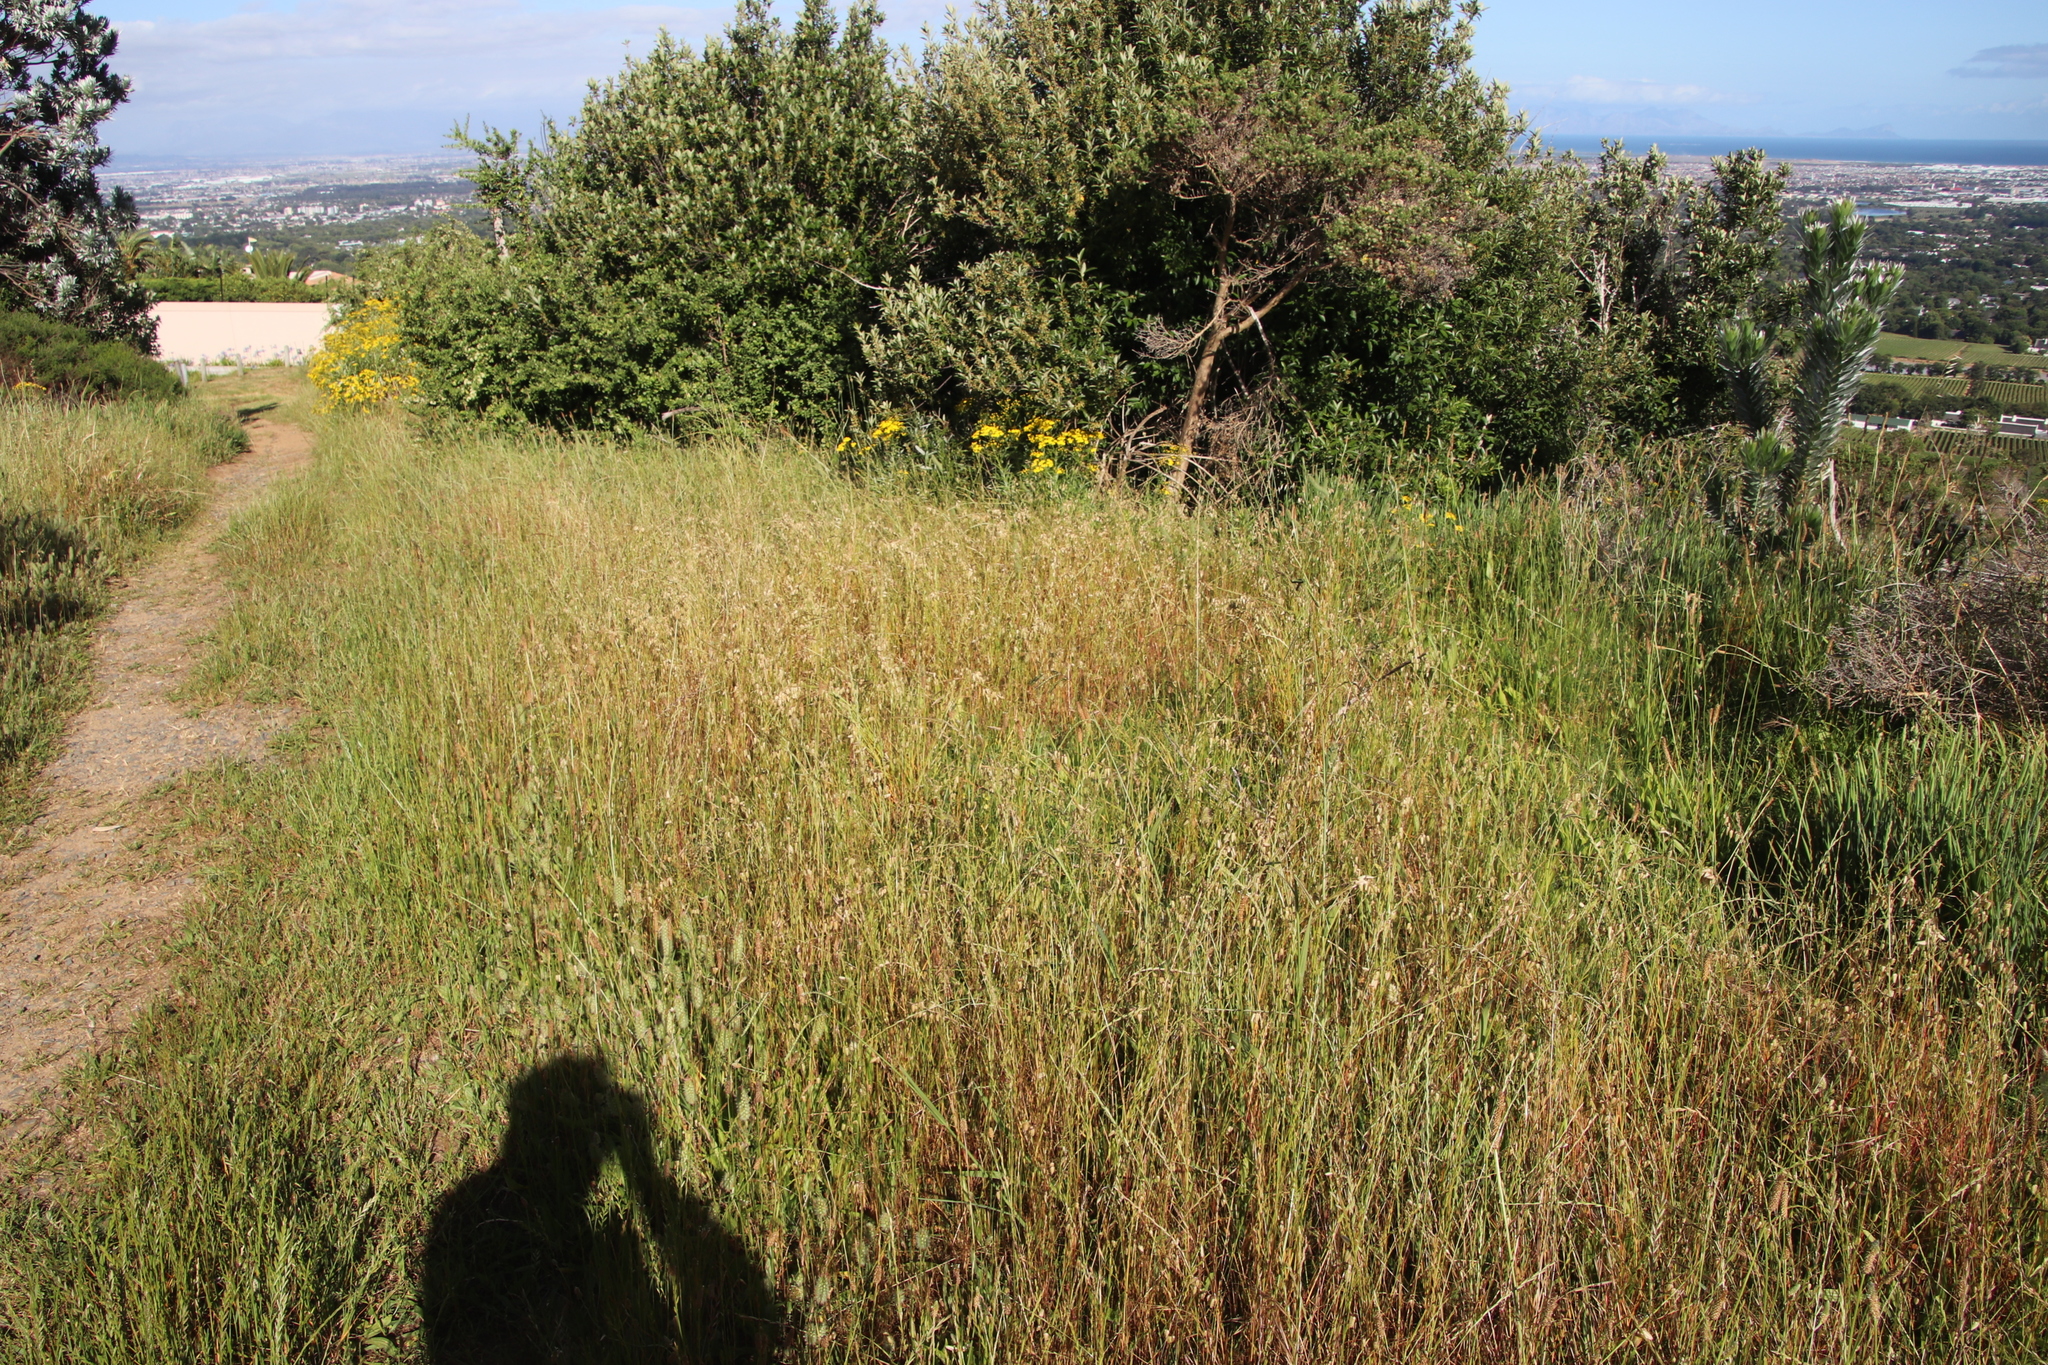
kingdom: Plantae
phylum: Tracheophyta
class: Liliopsida
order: Poales
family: Poaceae
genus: Briza
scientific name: Briza maxima
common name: Big quakinggrass
